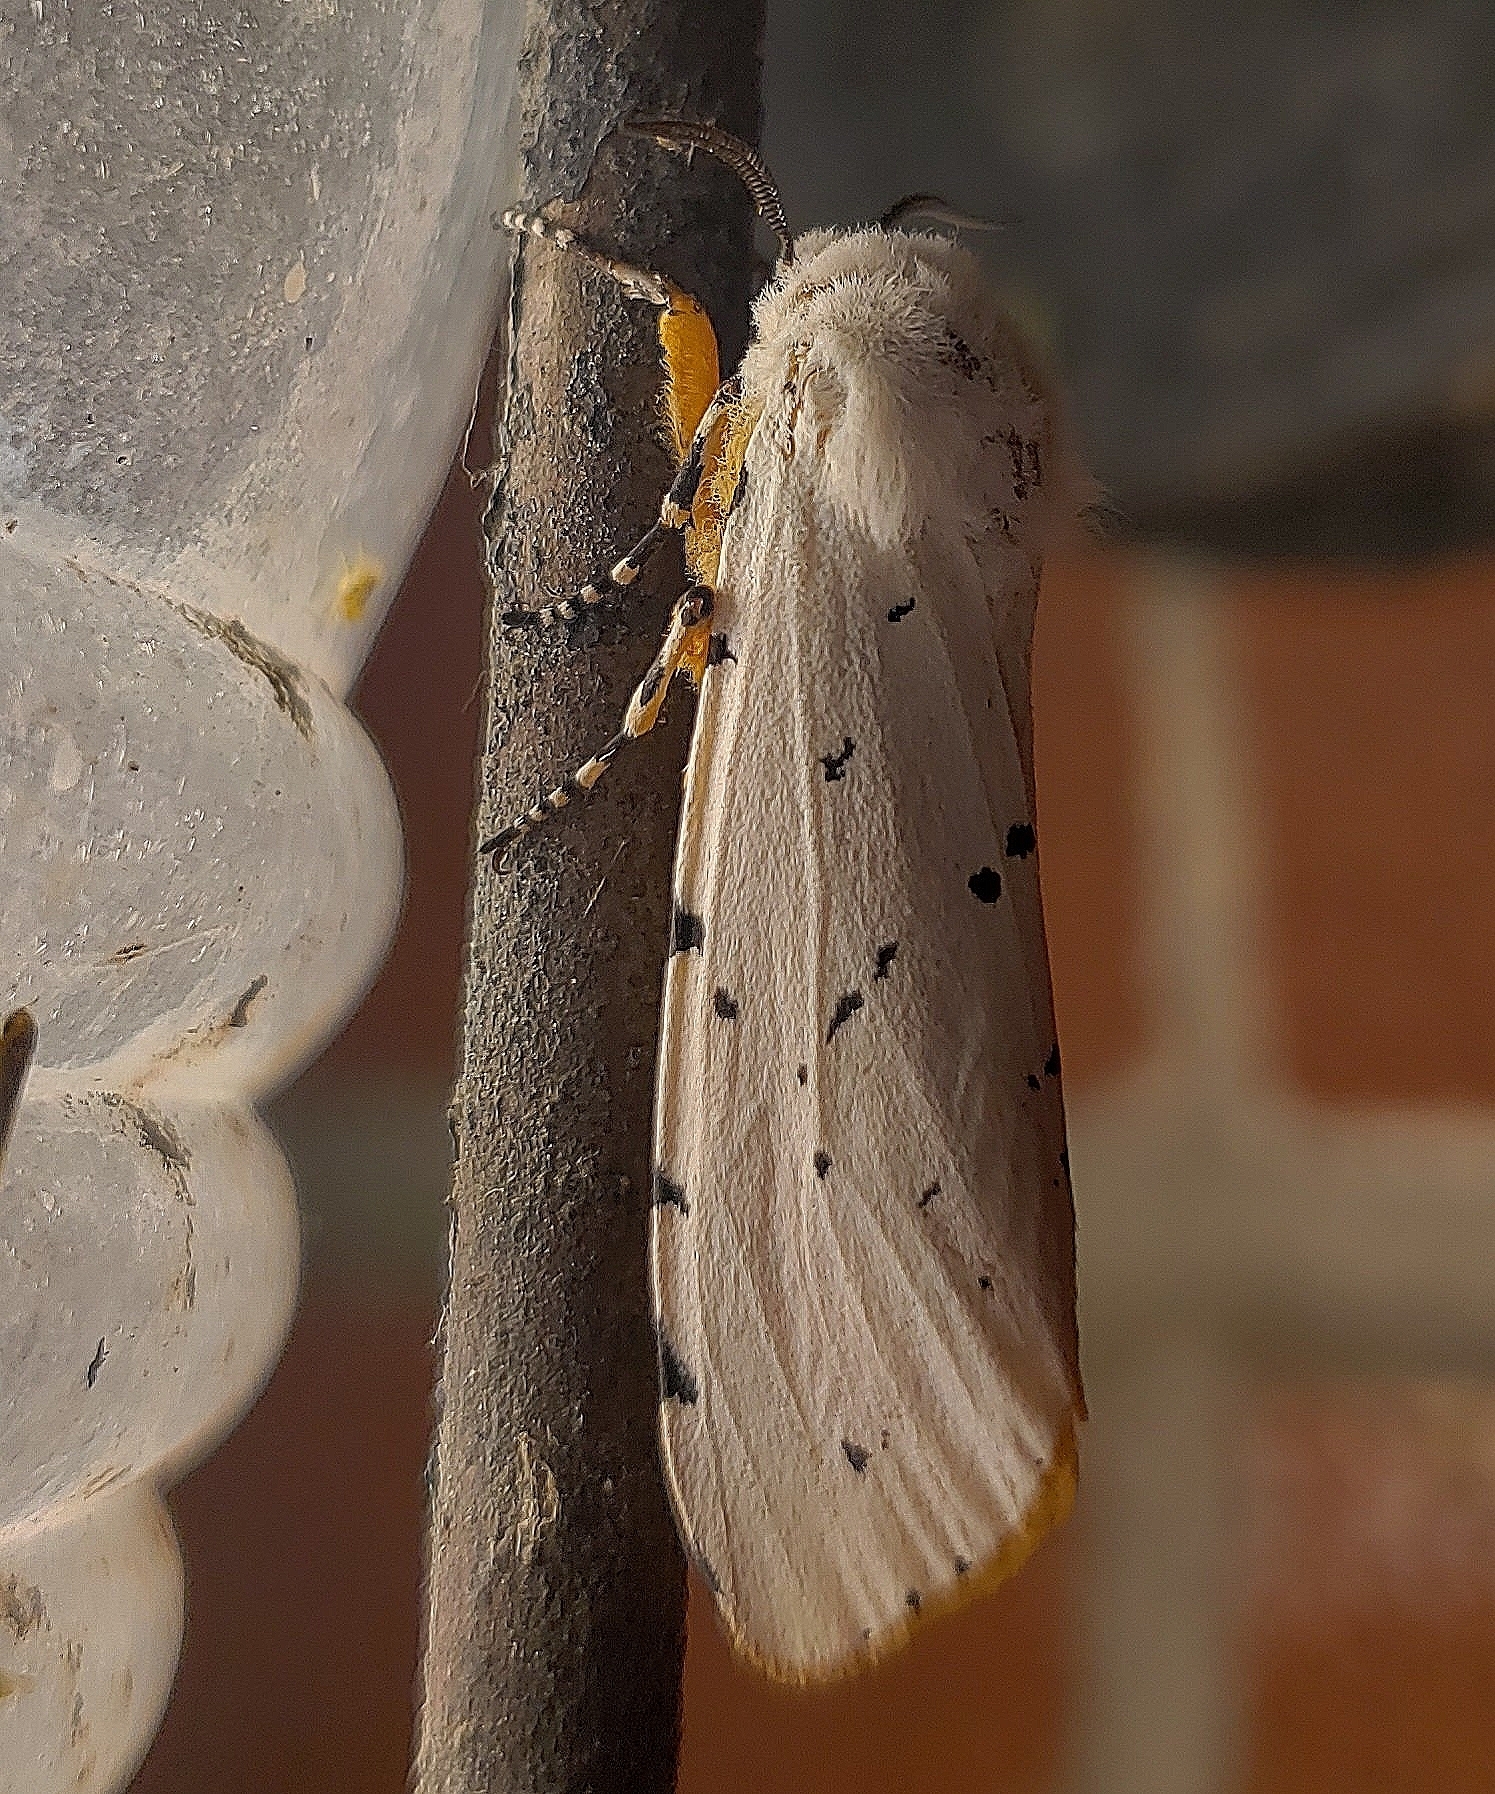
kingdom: Animalia
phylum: Arthropoda
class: Insecta
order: Lepidoptera
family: Erebidae
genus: Estigmene
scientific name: Estigmene acrea
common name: Salt marsh moth
